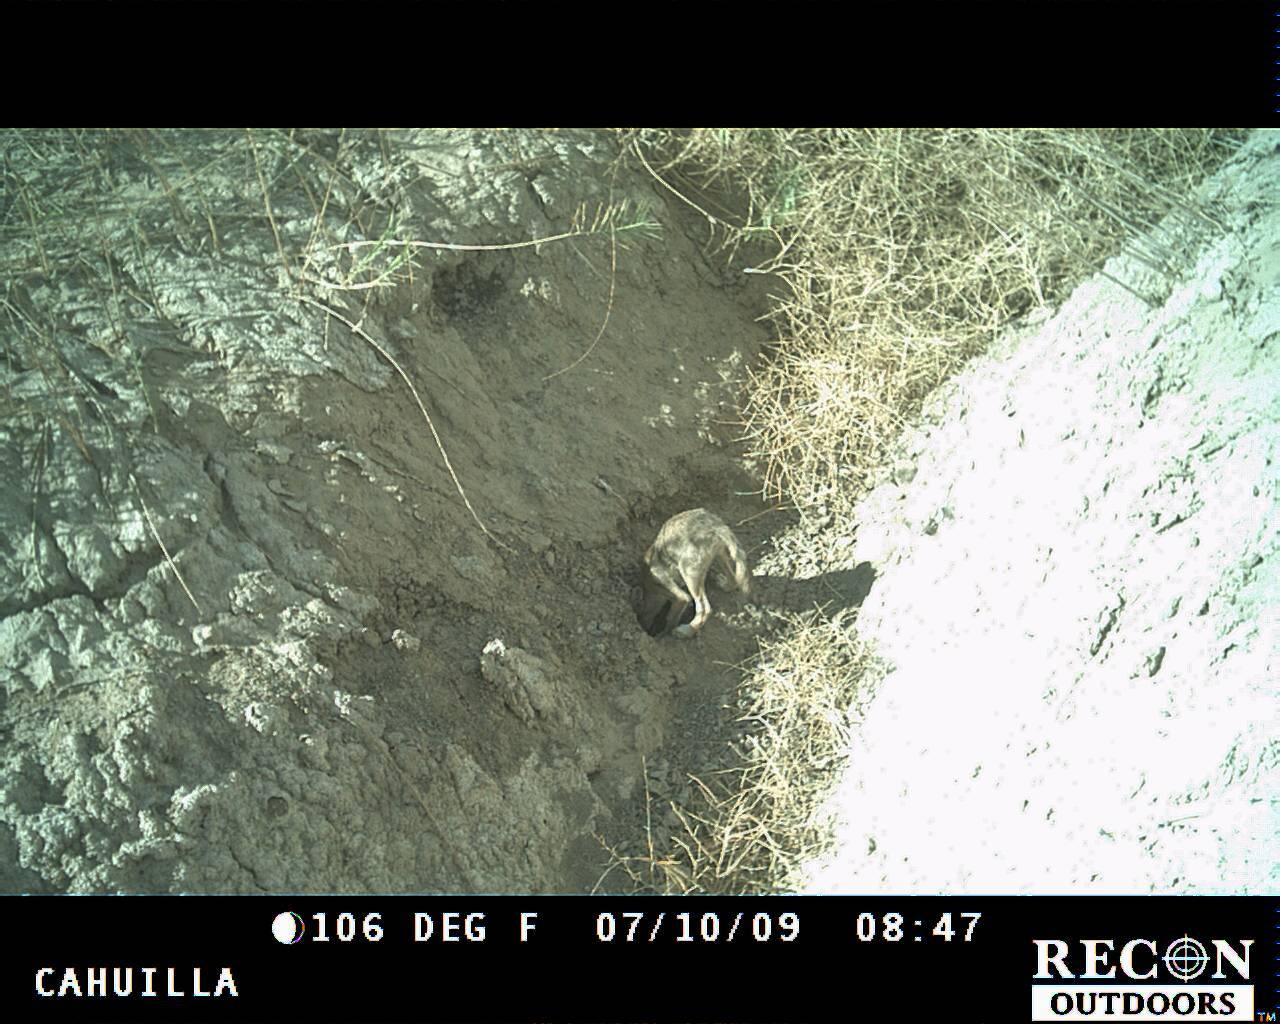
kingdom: Animalia
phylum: Chordata
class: Mammalia
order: Carnivora
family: Canidae
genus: Canis
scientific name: Canis latrans
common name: Coyote
